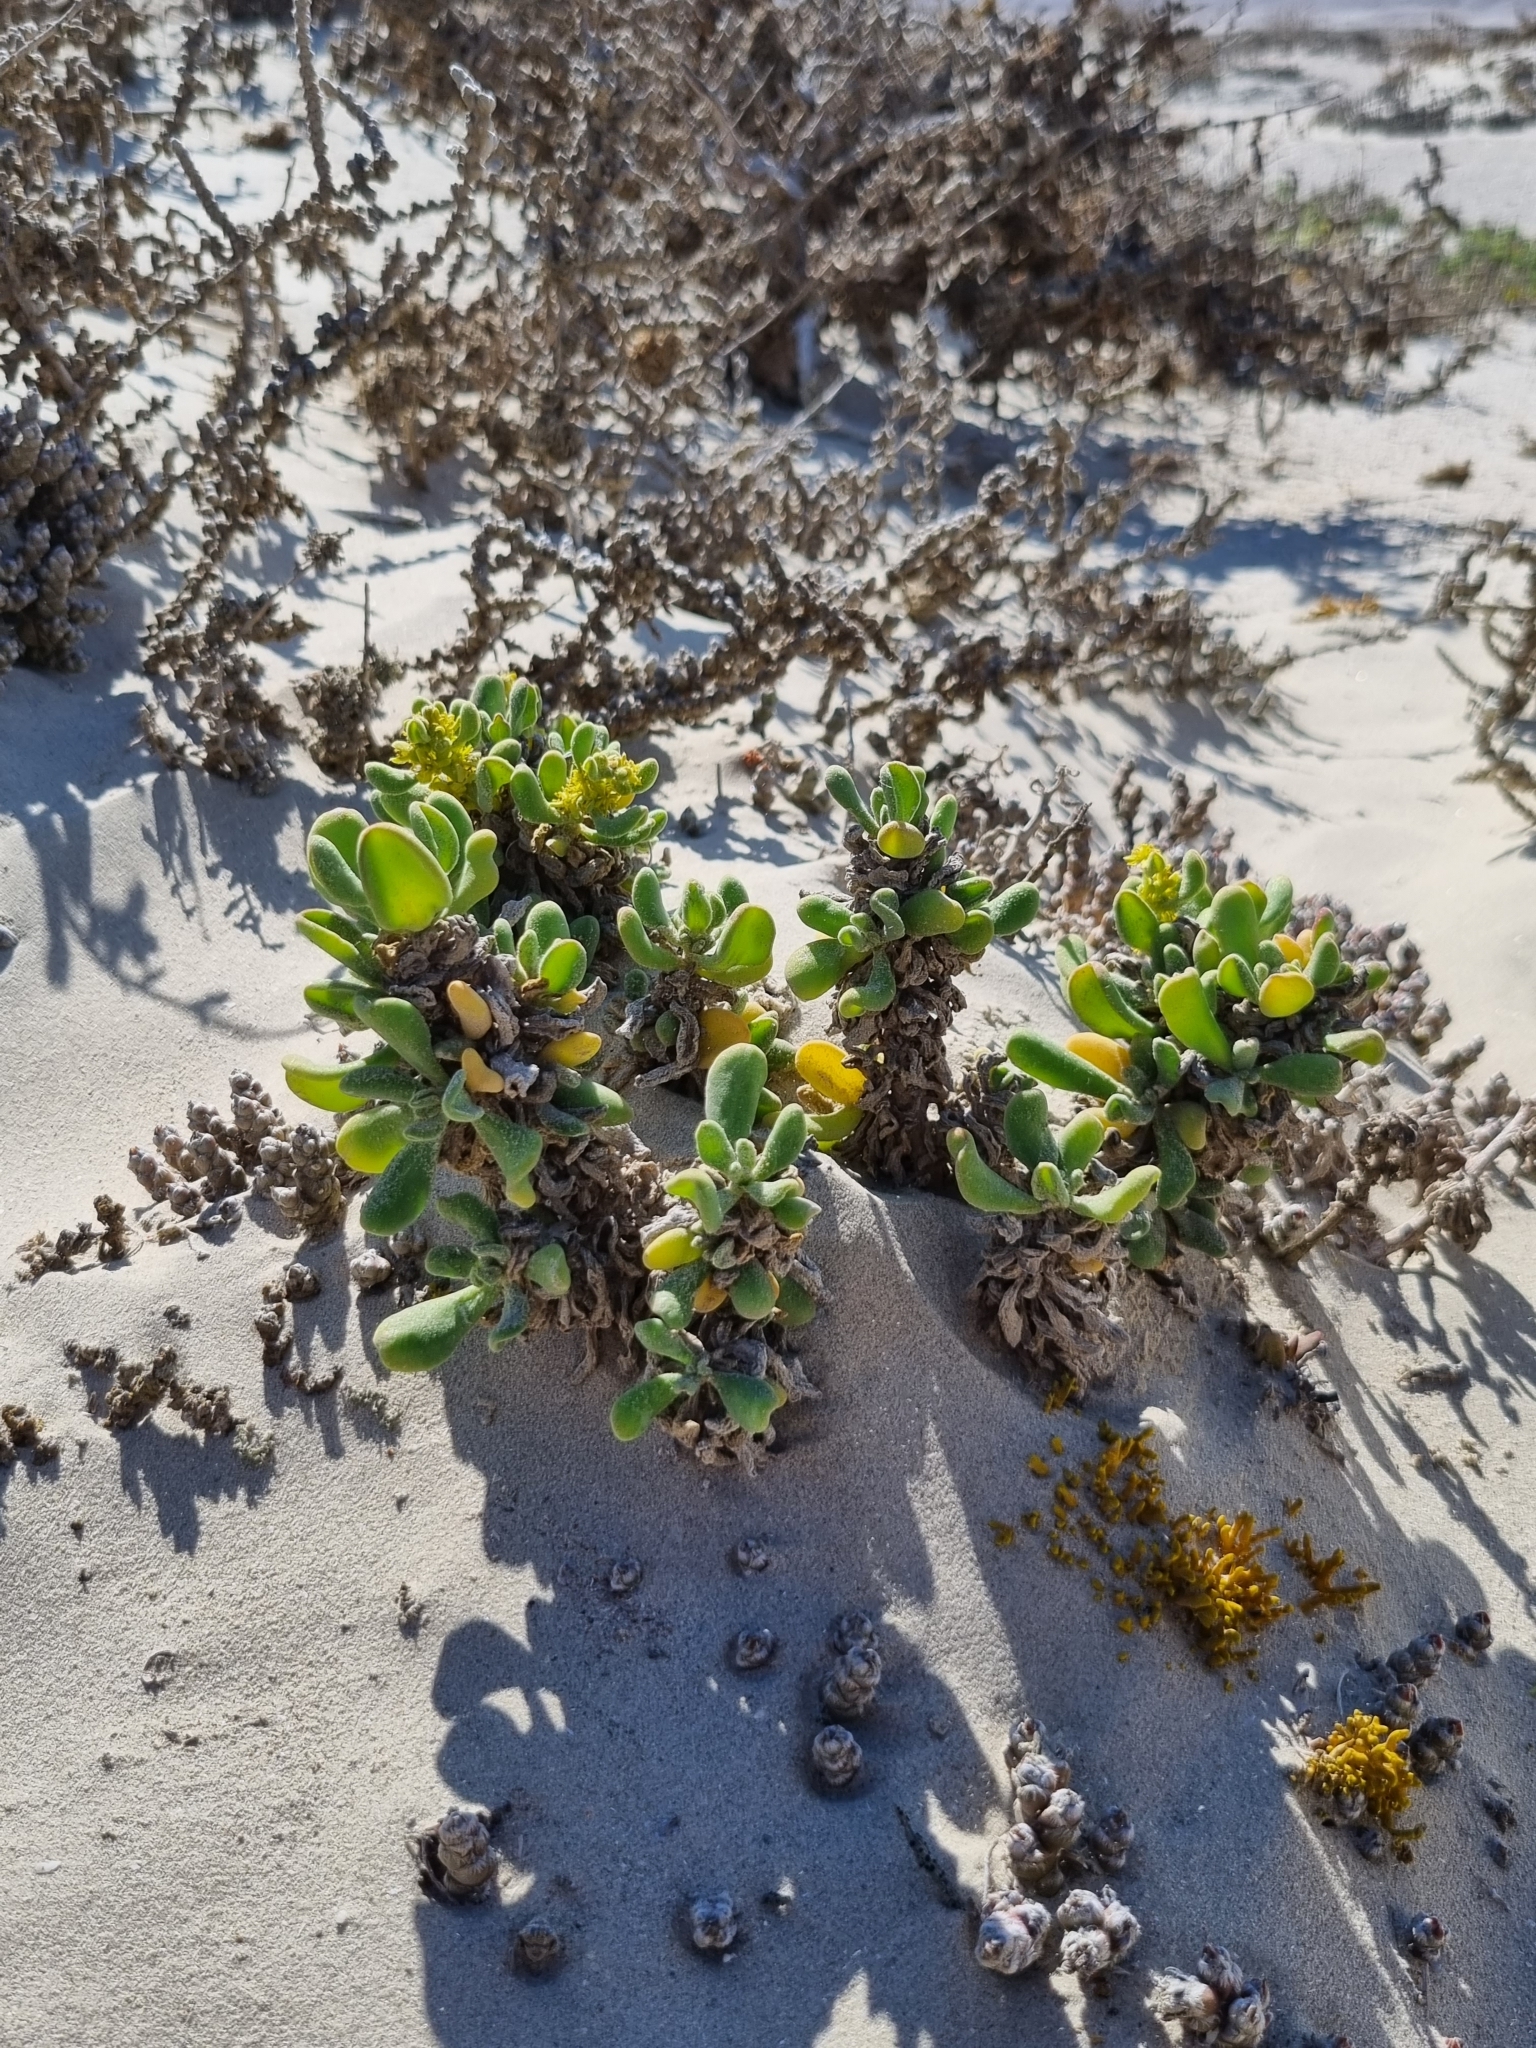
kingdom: Plantae
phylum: Tracheophyta
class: Magnoliopsida
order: Caryophyllales
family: Aizoaceae
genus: Tetragonia
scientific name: Tetragonia decumbens
